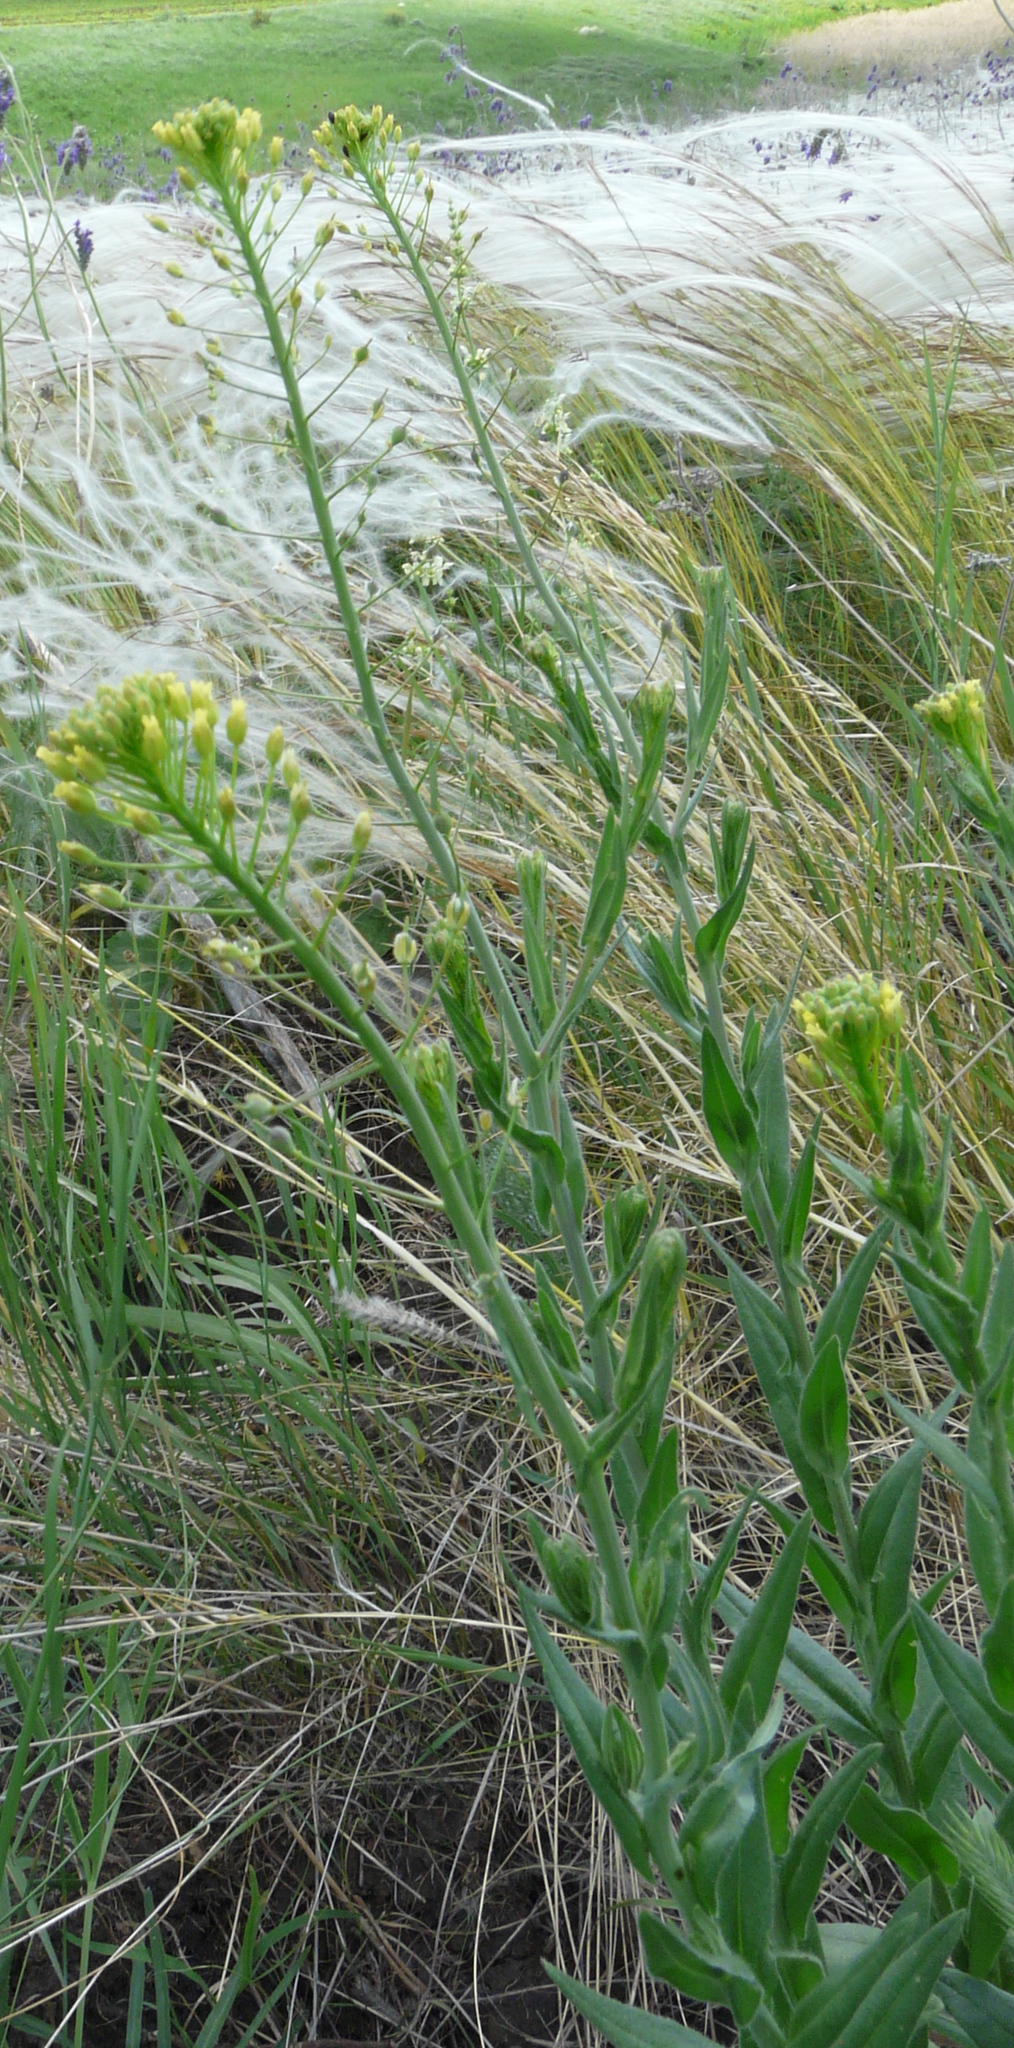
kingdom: Plantae
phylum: Tracheophyta
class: Magnoliopsida
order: Brassicales
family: Brassicaceae
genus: Camelina
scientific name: Camelina microcarpa
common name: Lesser gold-of-pleasure
